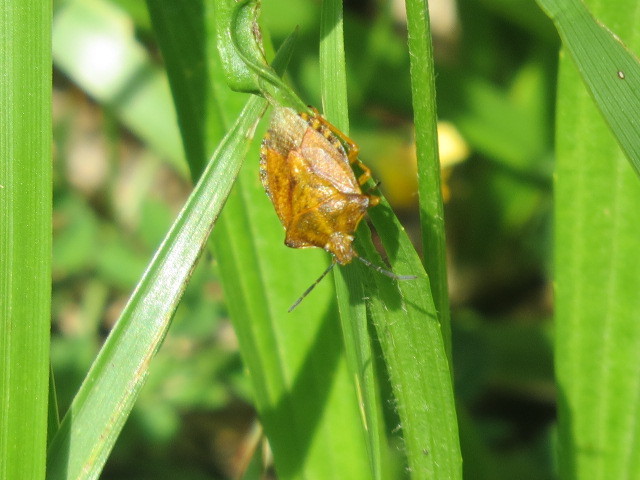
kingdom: Animalia
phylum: Arthropoda
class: Insecta
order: Hemiptera
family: Pentatomidae
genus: Carpocoris
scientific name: Carpocoris purpureipennis
